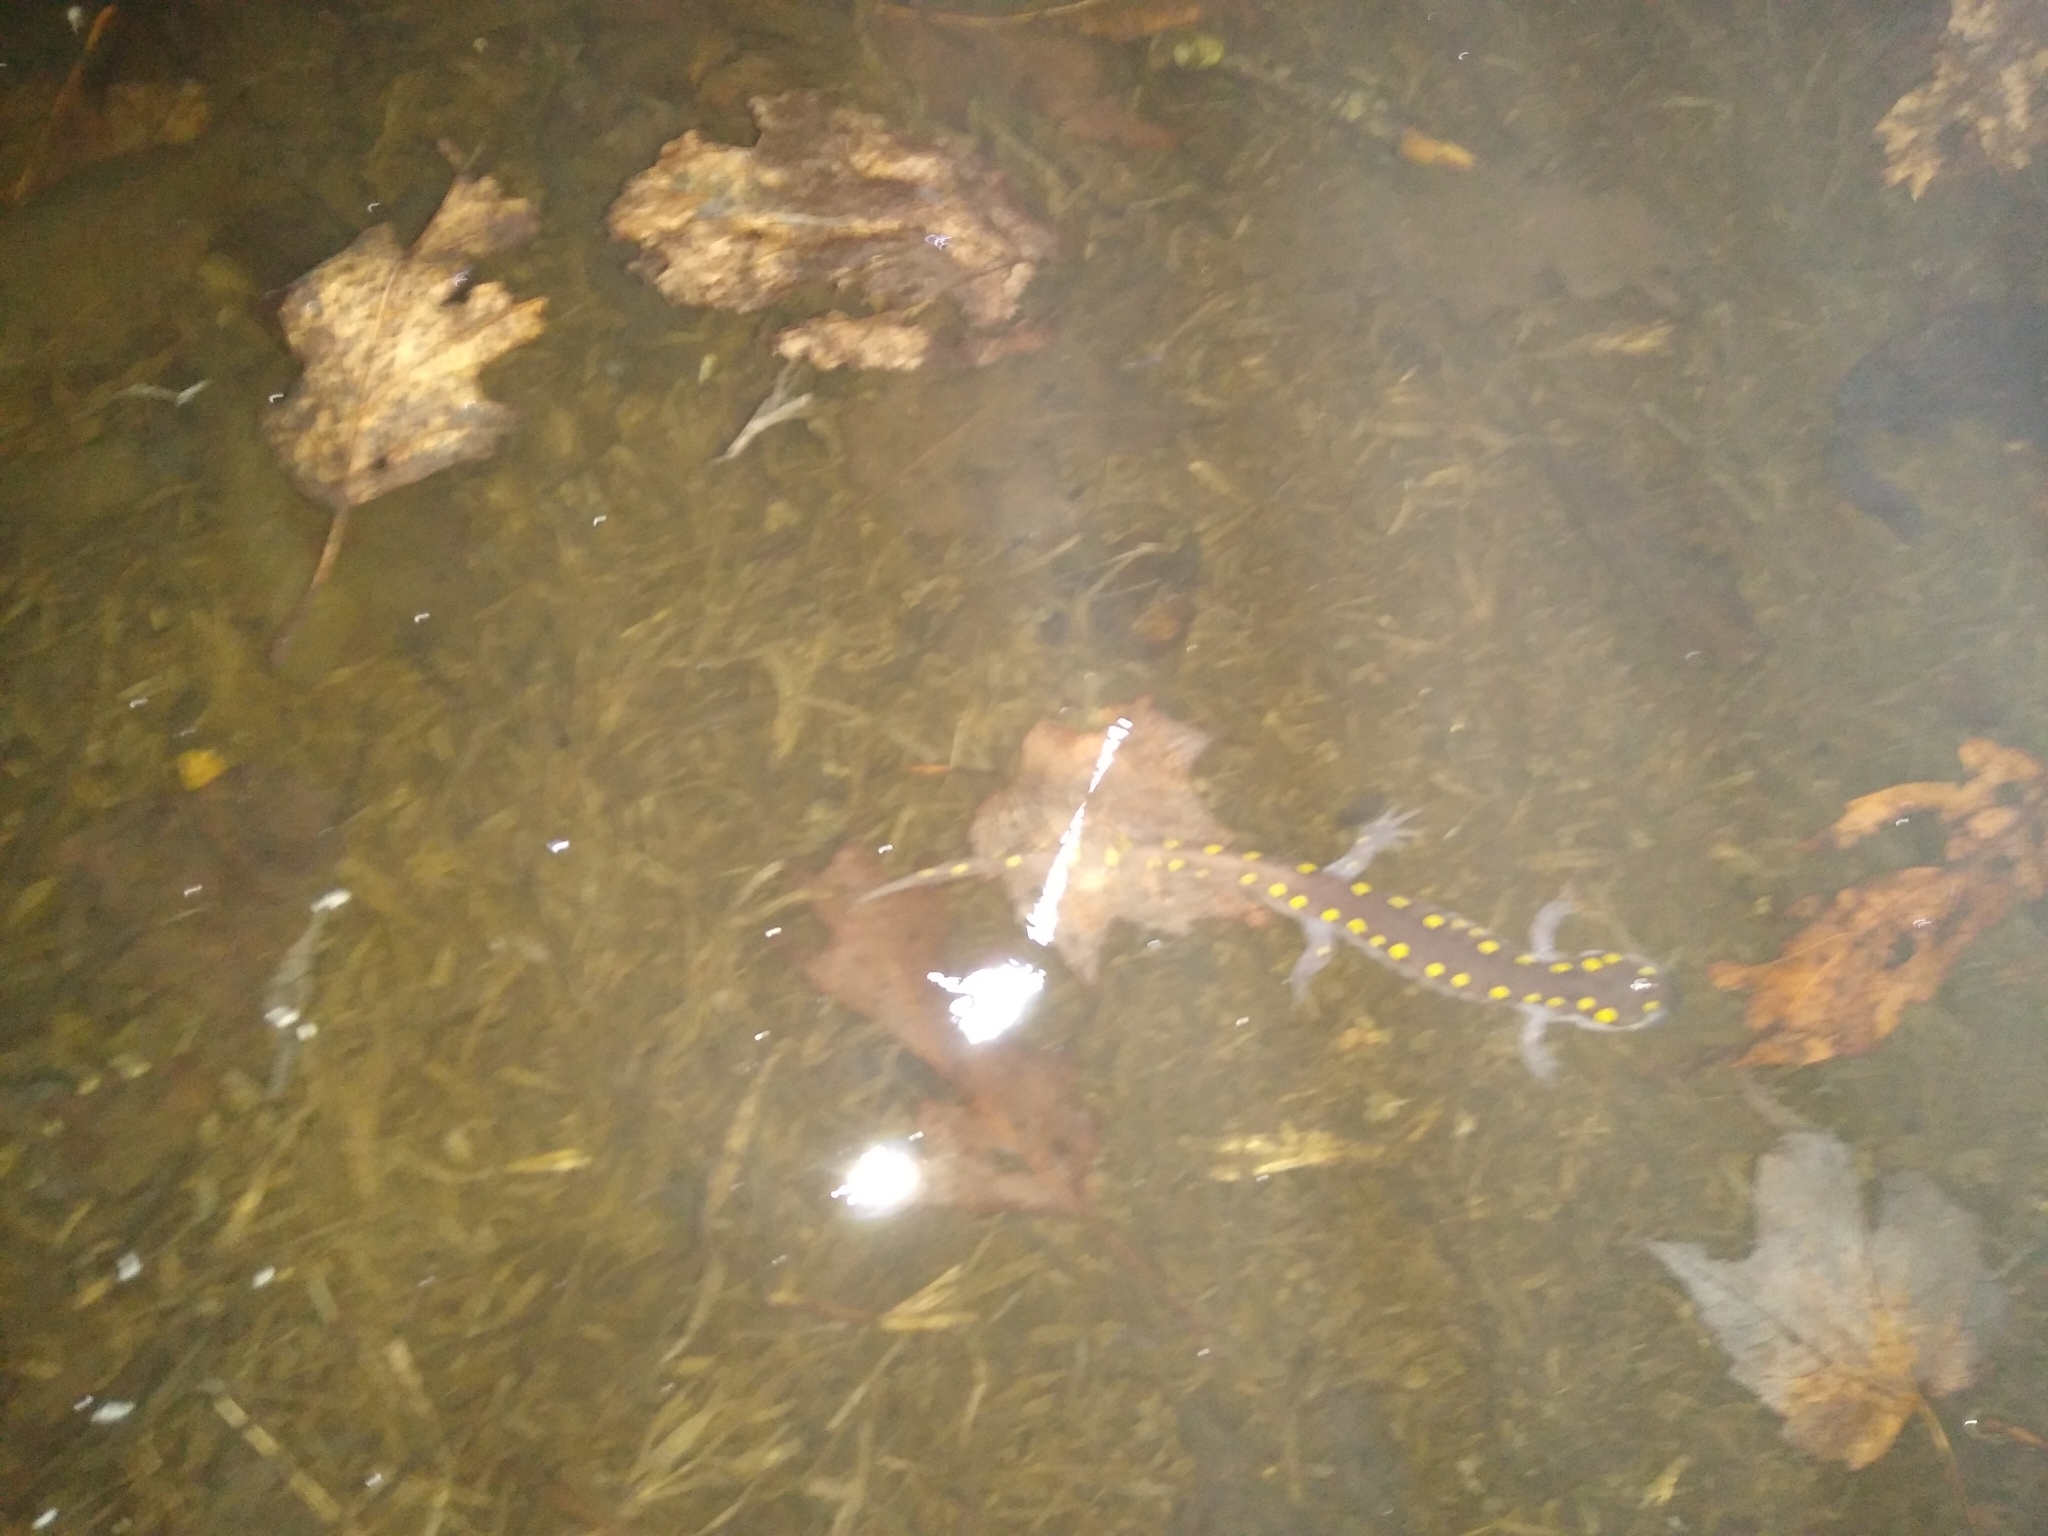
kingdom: Animalia
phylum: Chordata
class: Amphibia
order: Caudata
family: Ambystomatidae
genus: Ambystoma
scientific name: Ambystoma maculatum
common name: Spotted salamander
